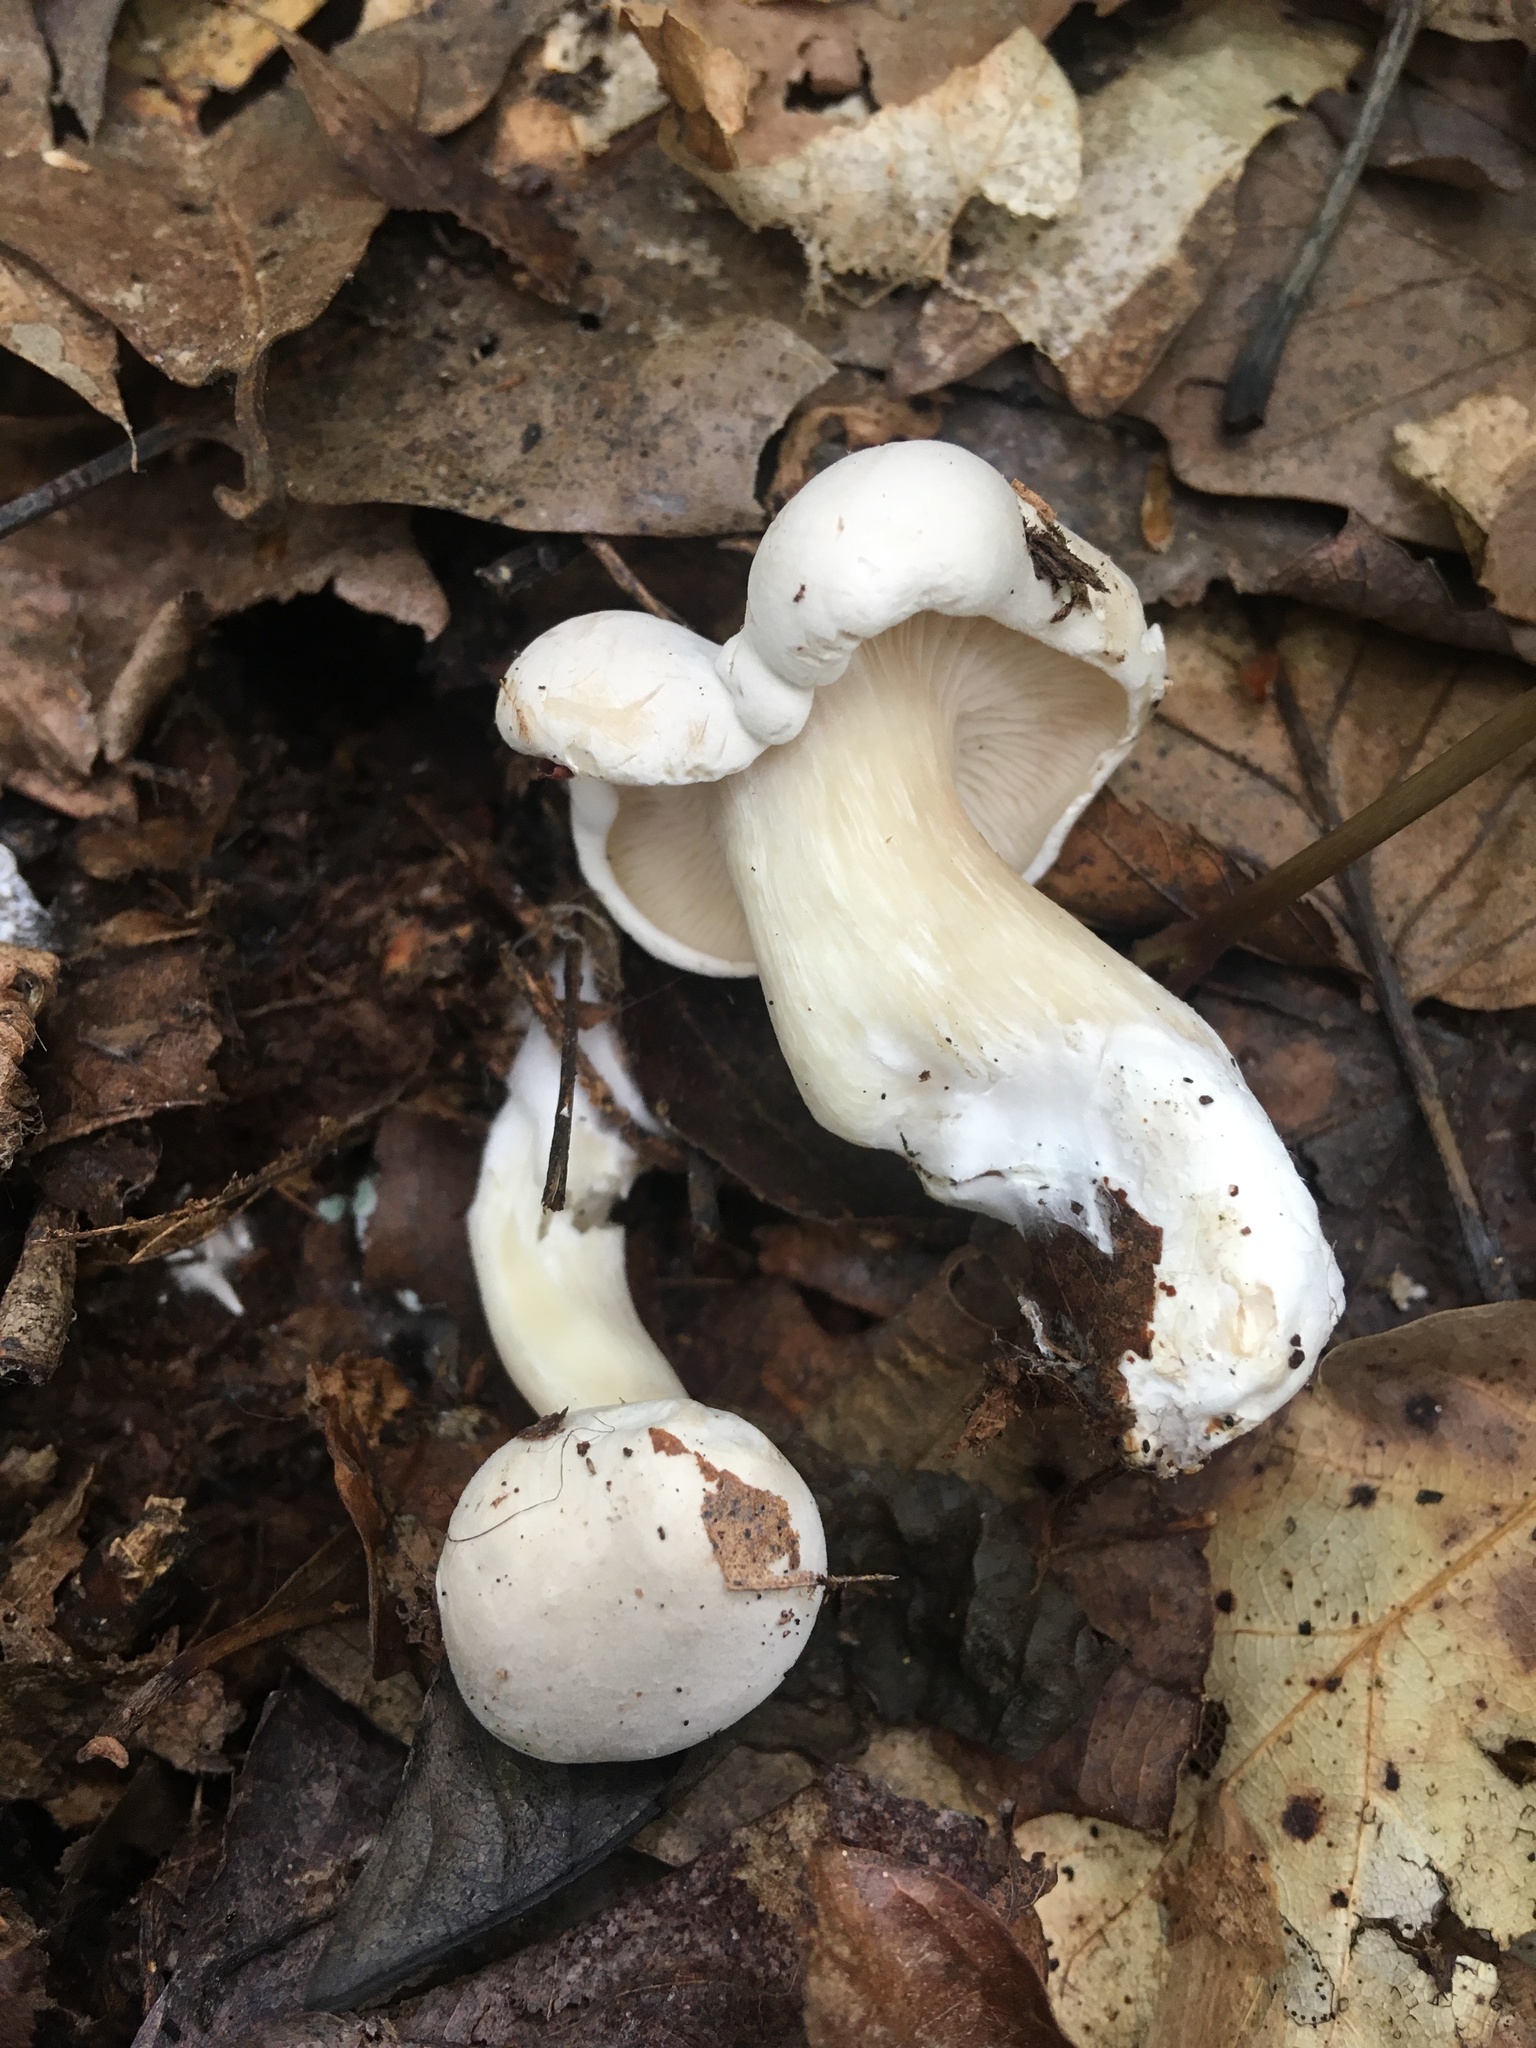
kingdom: Fungi
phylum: Basidiomycota
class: Agaricomycetes
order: Agaricales
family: Entolomataceae
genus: Clitopilus
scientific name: Clitopilus prunulus
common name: The miller
